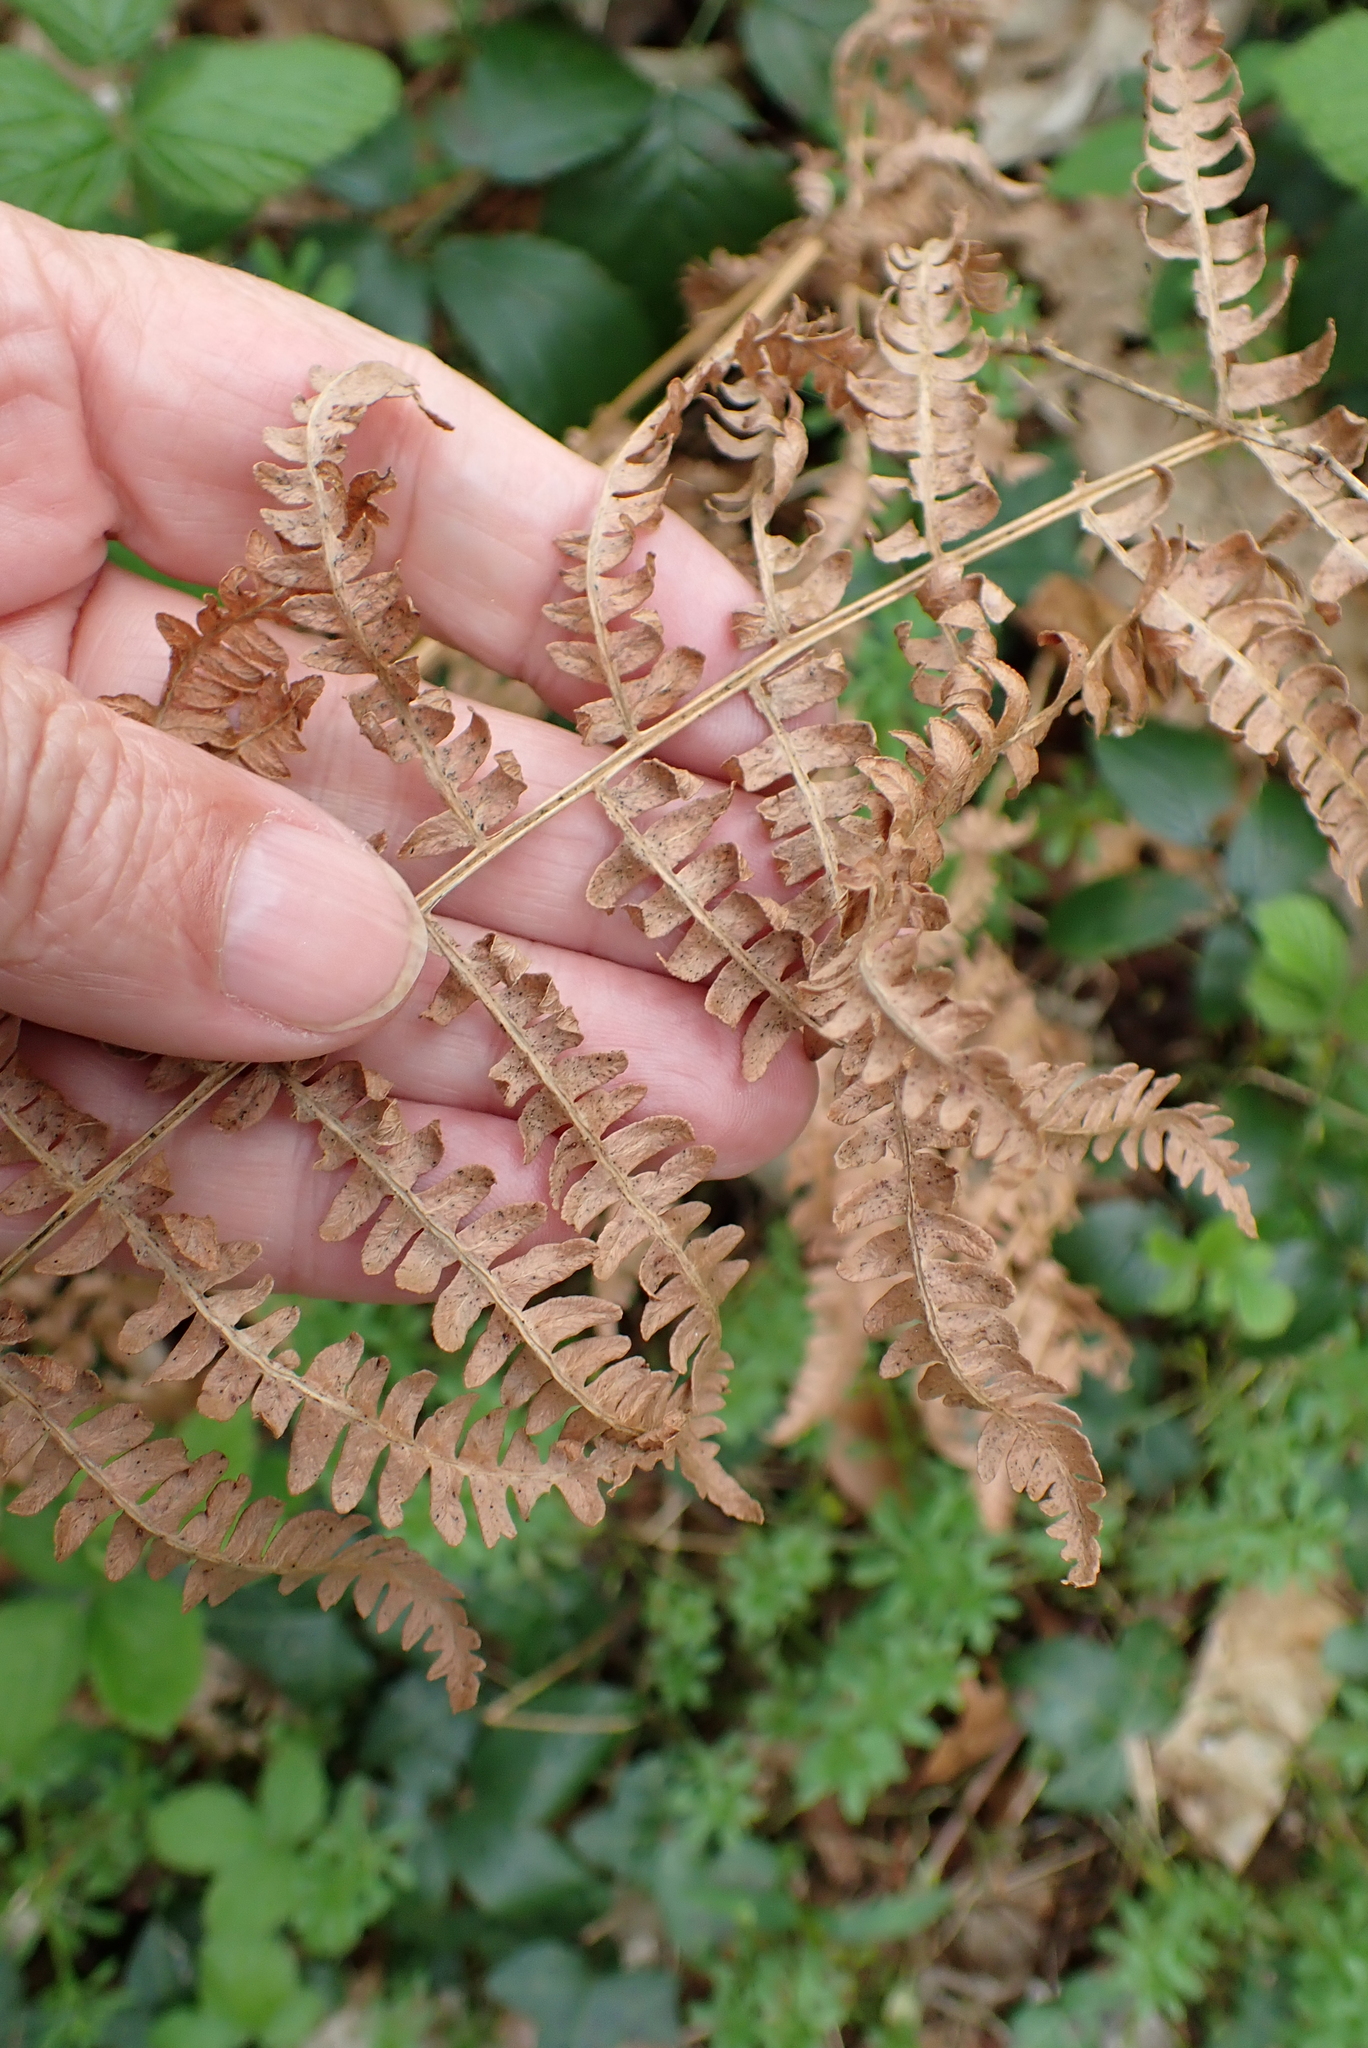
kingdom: Plantae
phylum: Tracheophyta
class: Polypodiopsida
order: Polypodiales
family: Dennstaedtiaceae
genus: Pteridium
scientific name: Pteridium aquilinum
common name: Bracken
